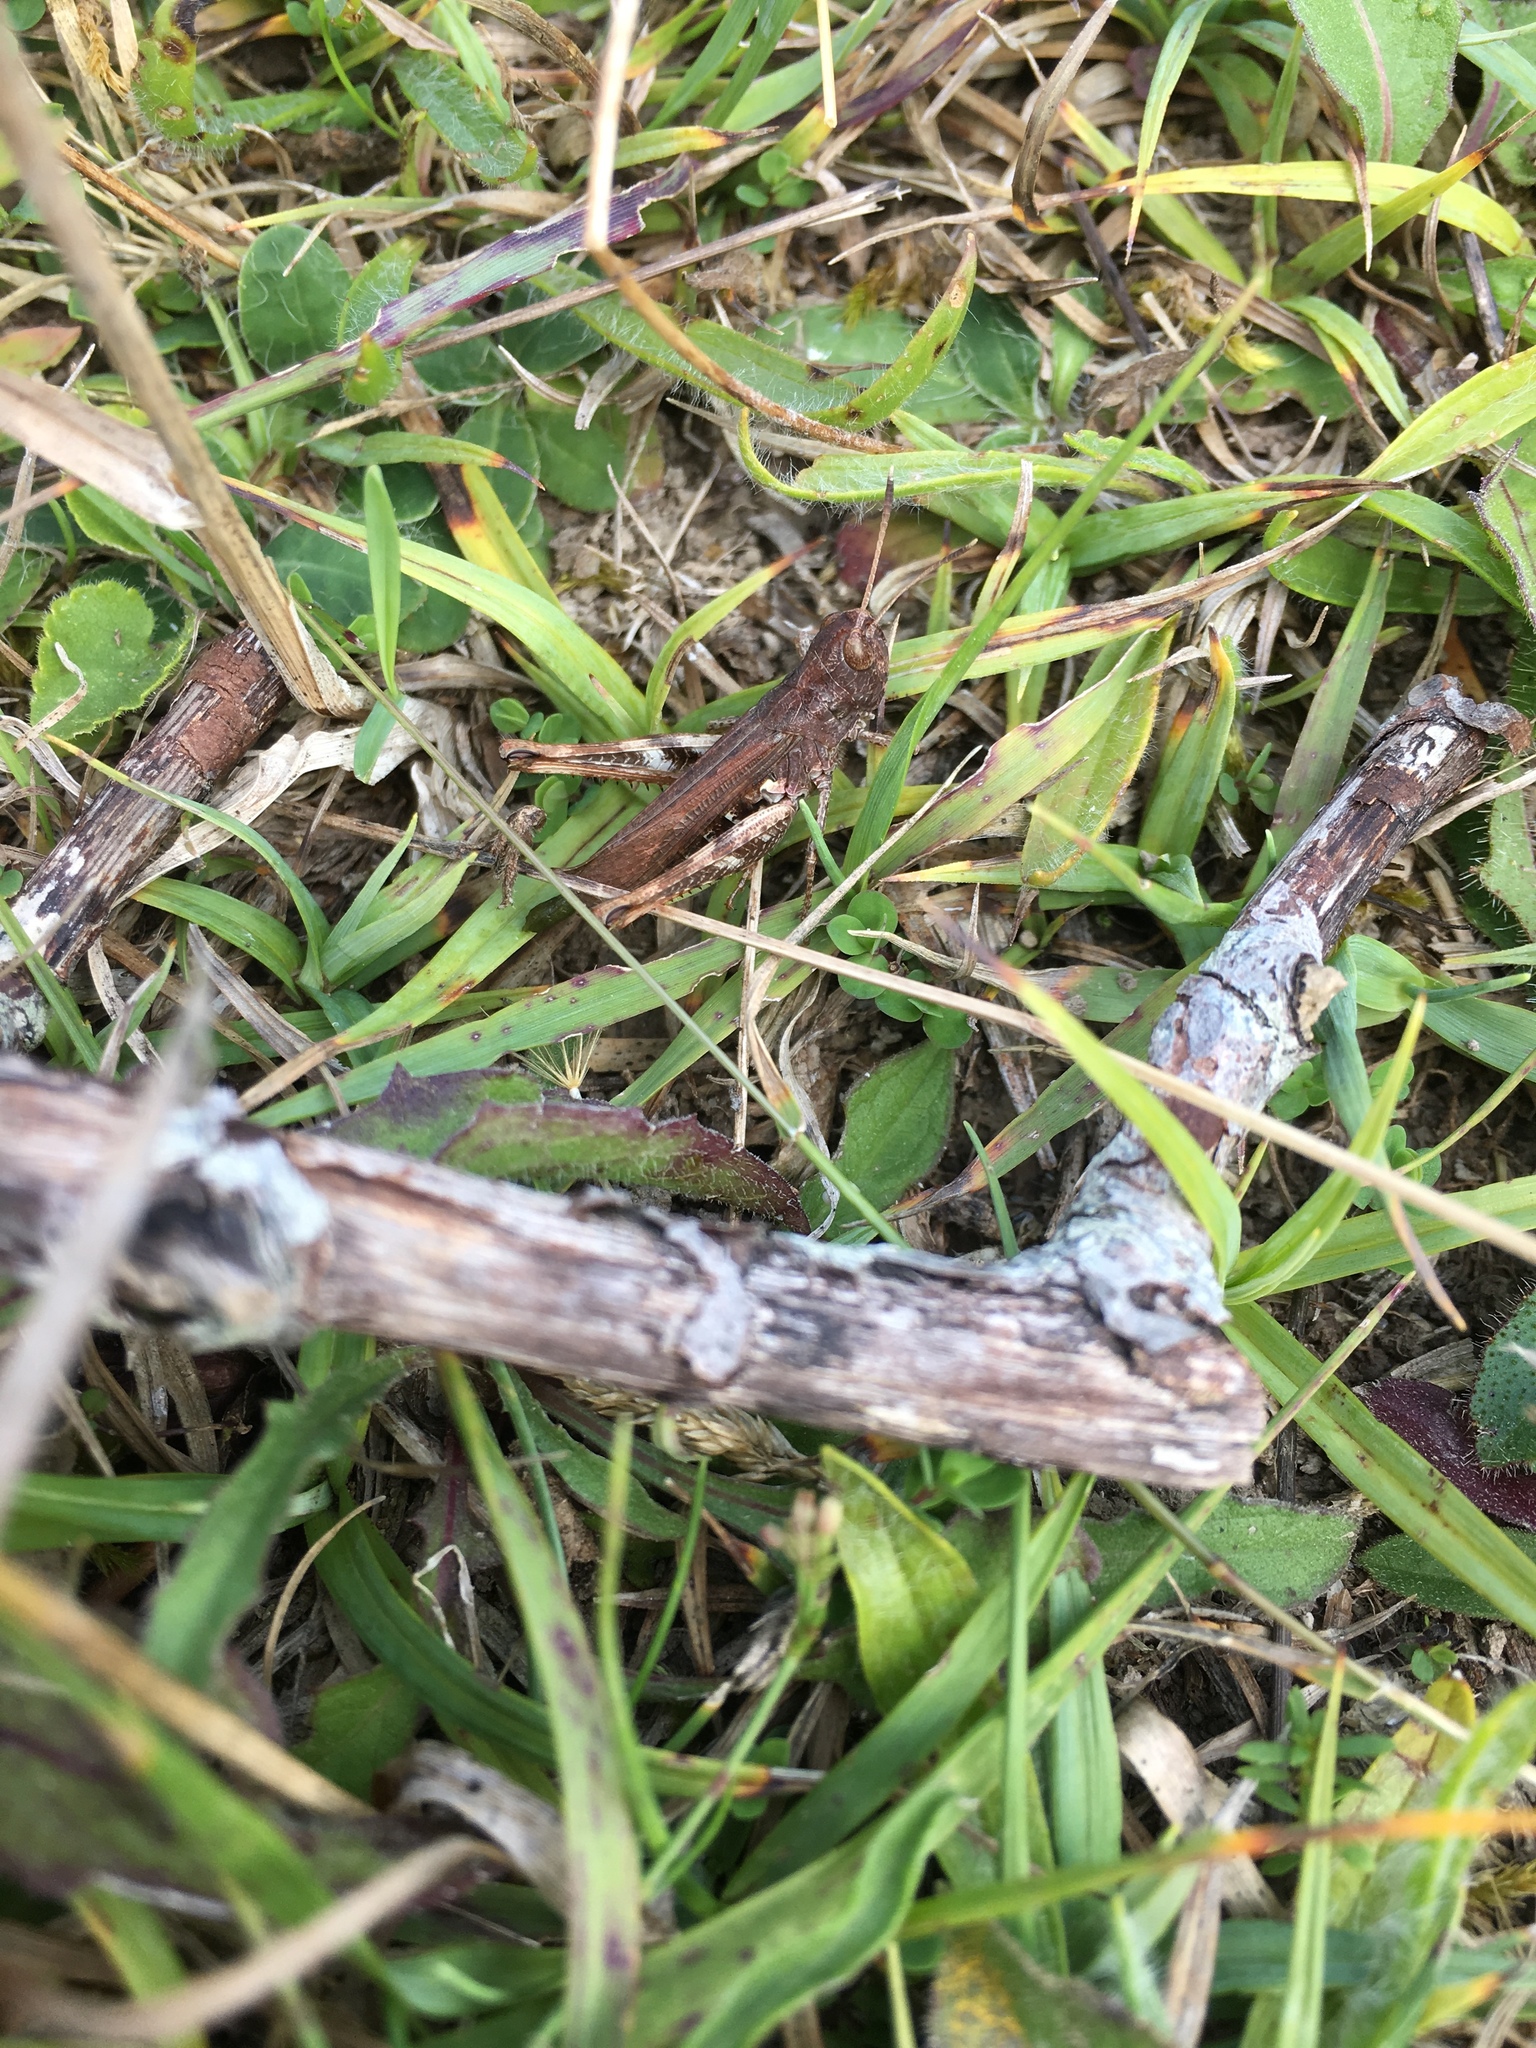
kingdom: Animalia
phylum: Arthropoda
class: Insecta
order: Orthoptera
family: Acrididae
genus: Gomphocerippus
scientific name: Gomphocerippus rufus
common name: Rufous grasshopper
